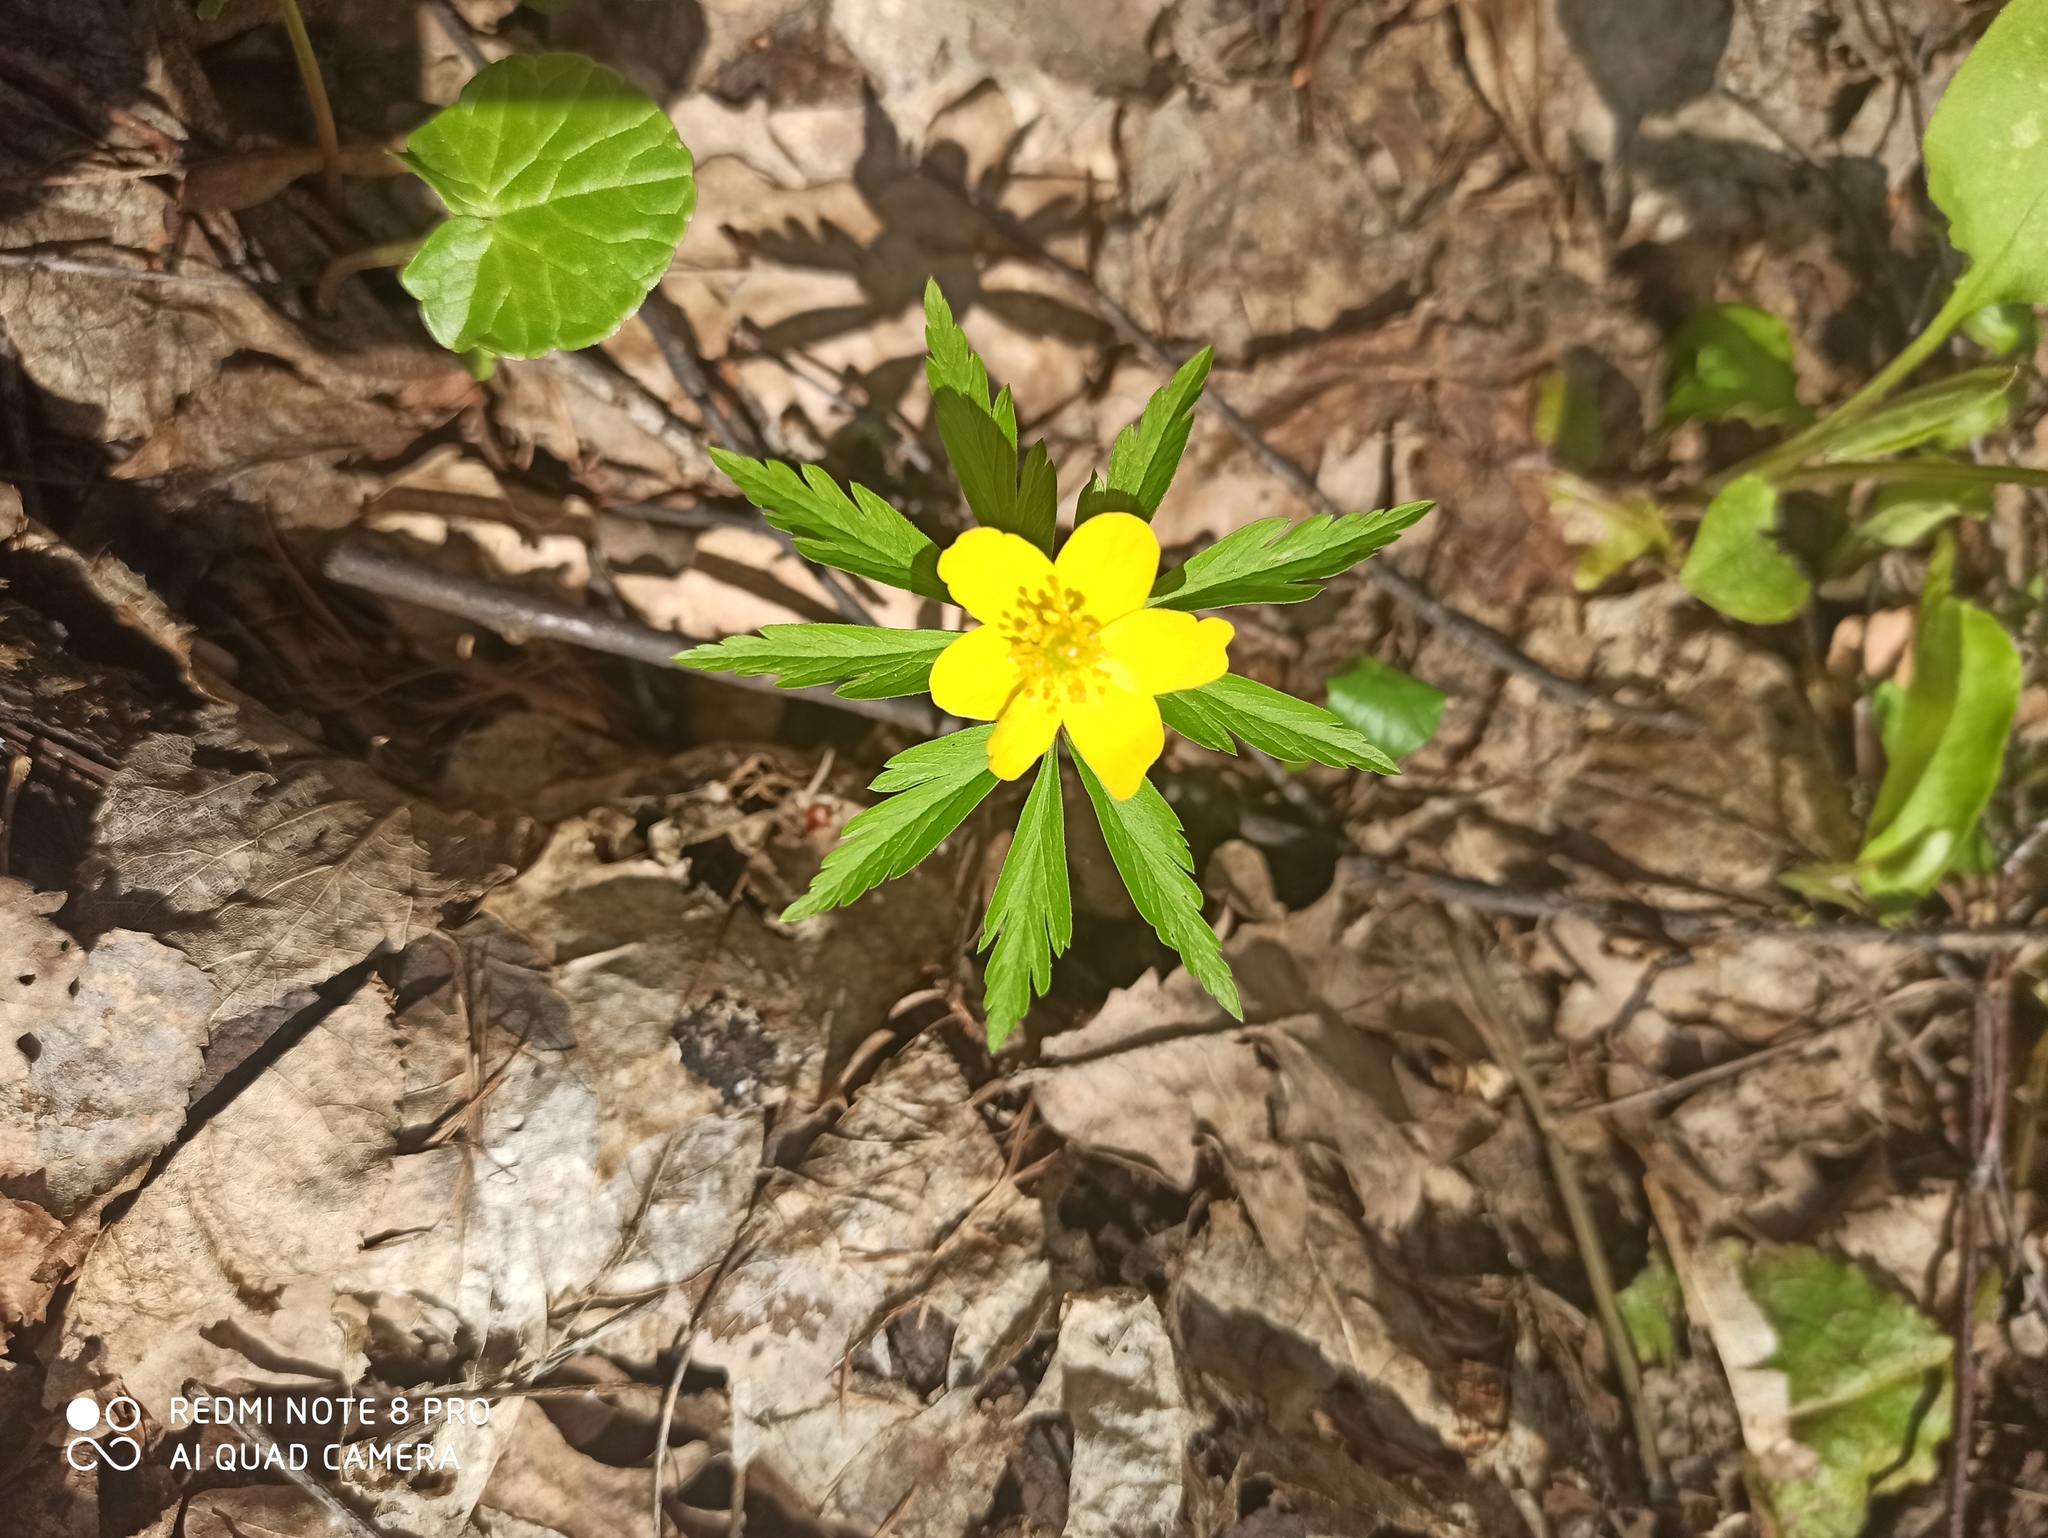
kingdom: Plantae
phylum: Tracheophyta
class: Magnoliopsida
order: Ranunculales
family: Ranunculaceae
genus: Anemone
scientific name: Anemone ranunculoides
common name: Yellow anemone
